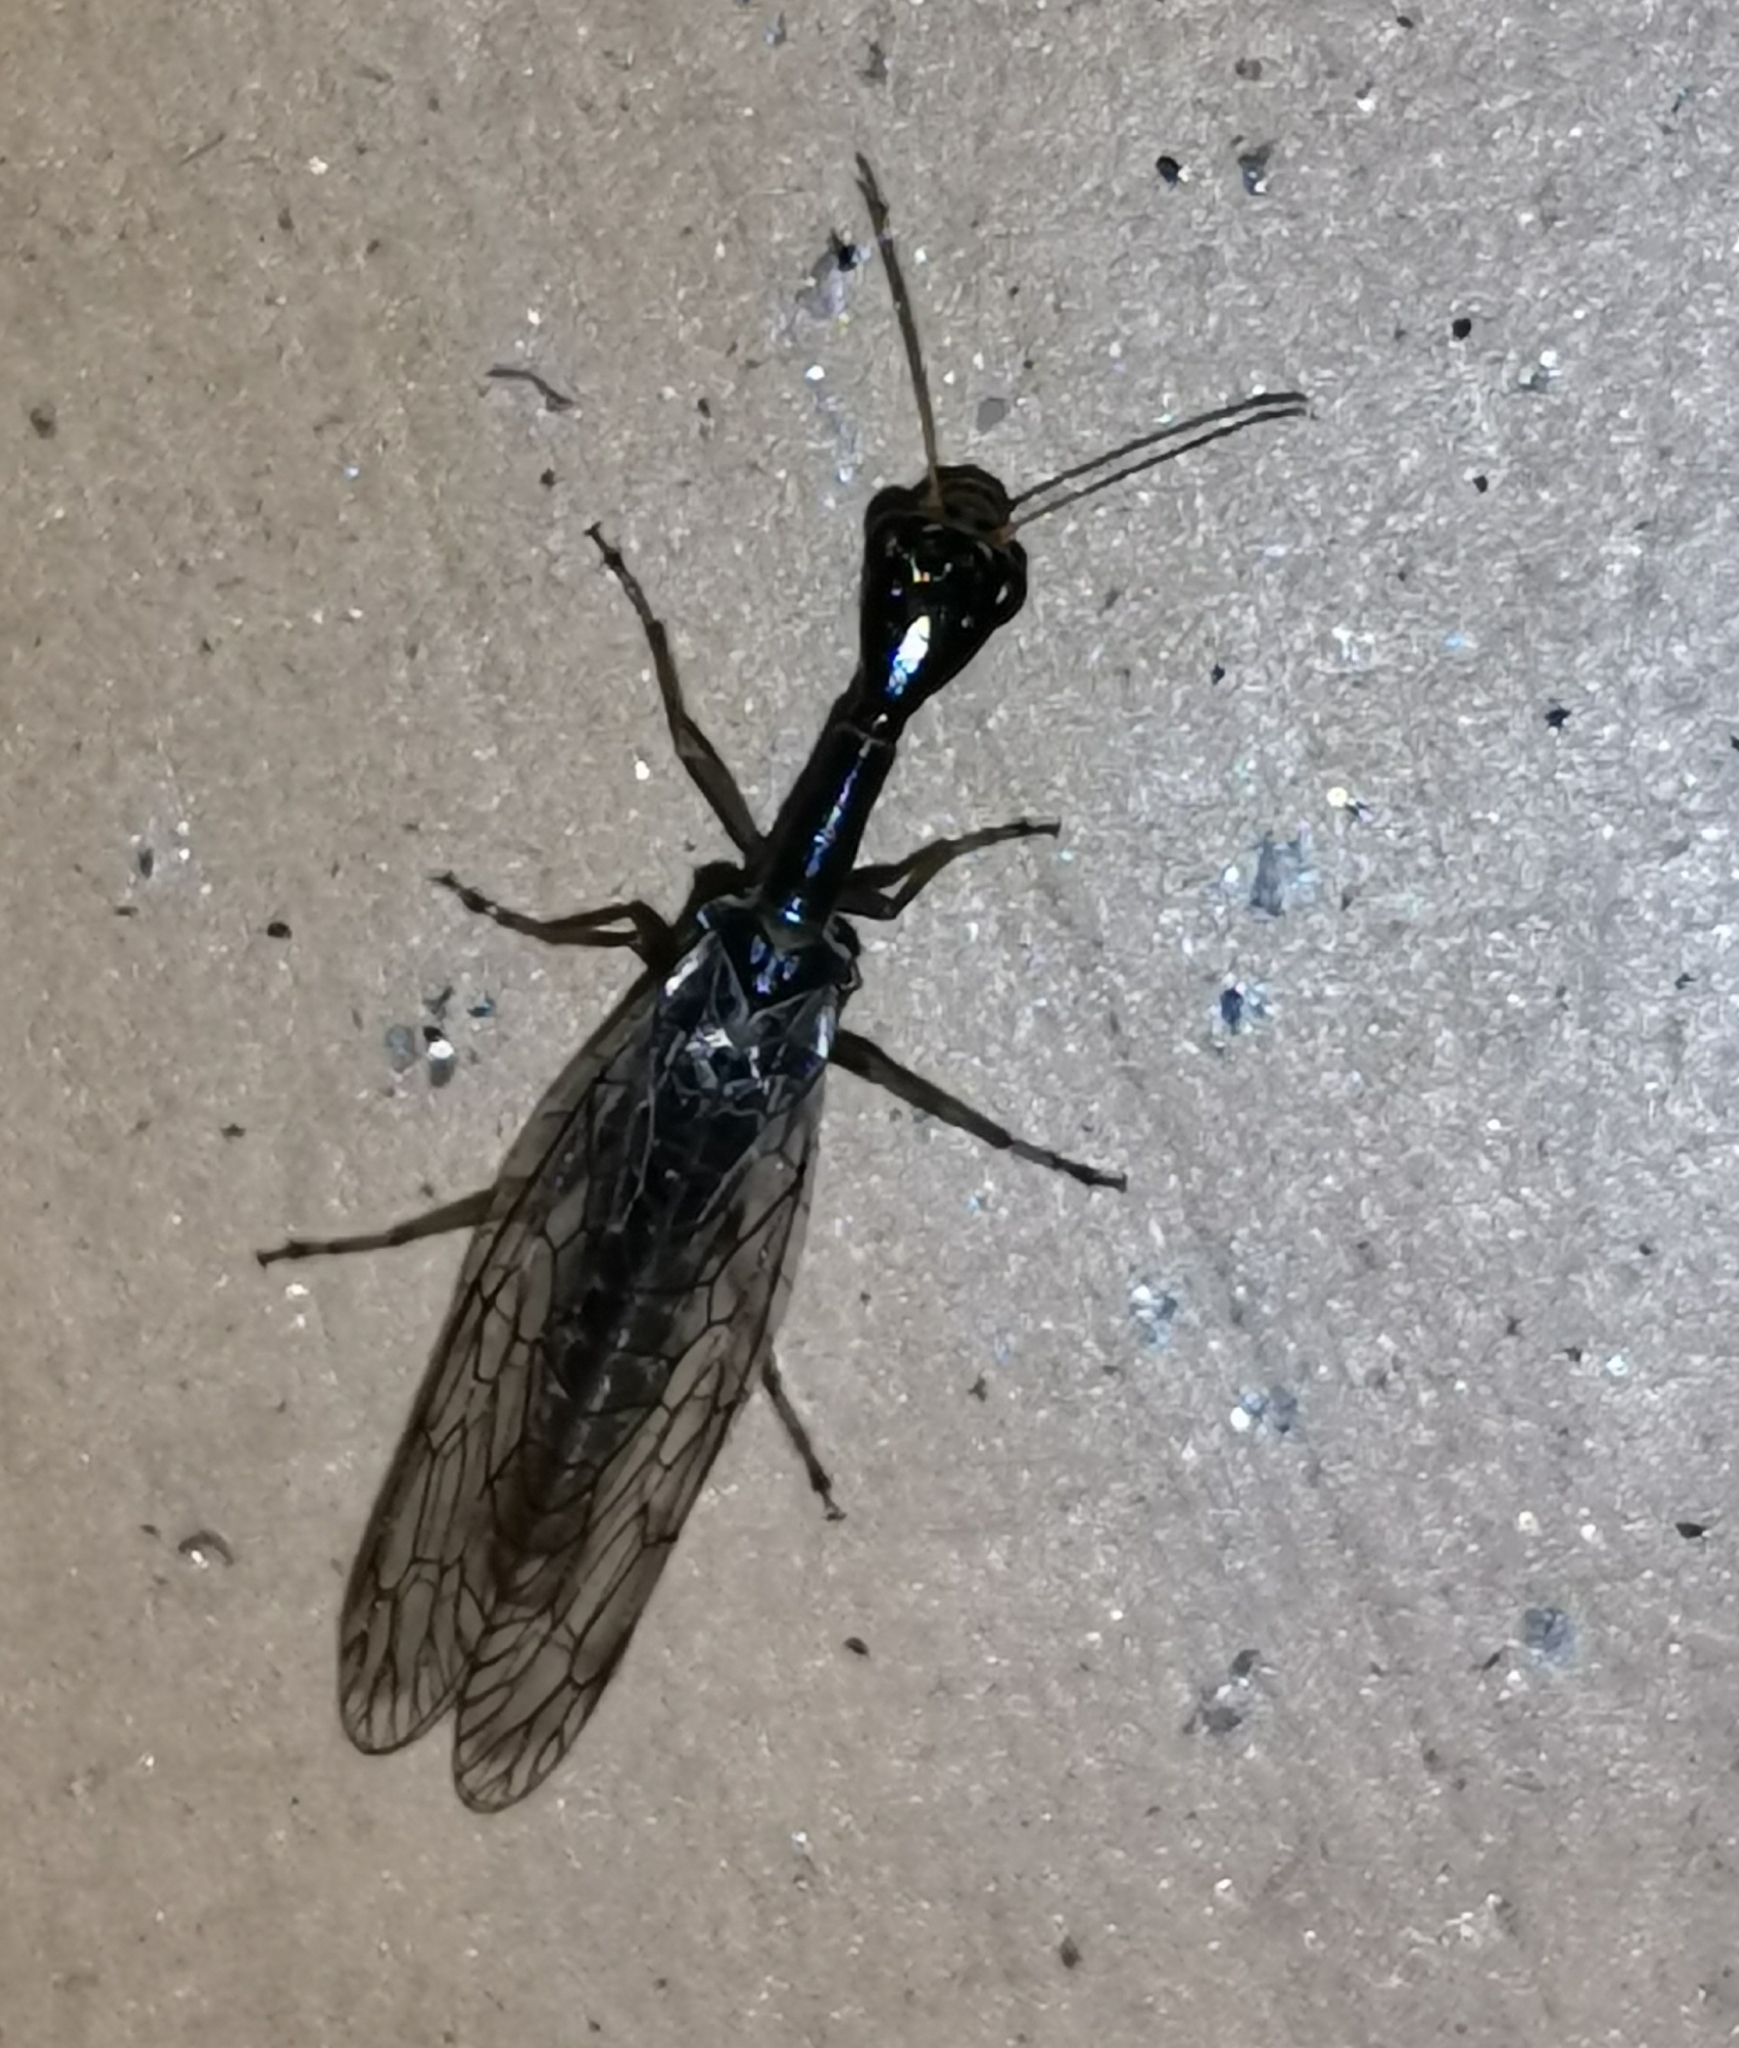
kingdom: Animalia
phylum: Arthropoda
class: Insecta
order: Raphidioptera
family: Raphidiidae
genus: Xanthostigma
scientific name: Xanthostigma xanthostigma
